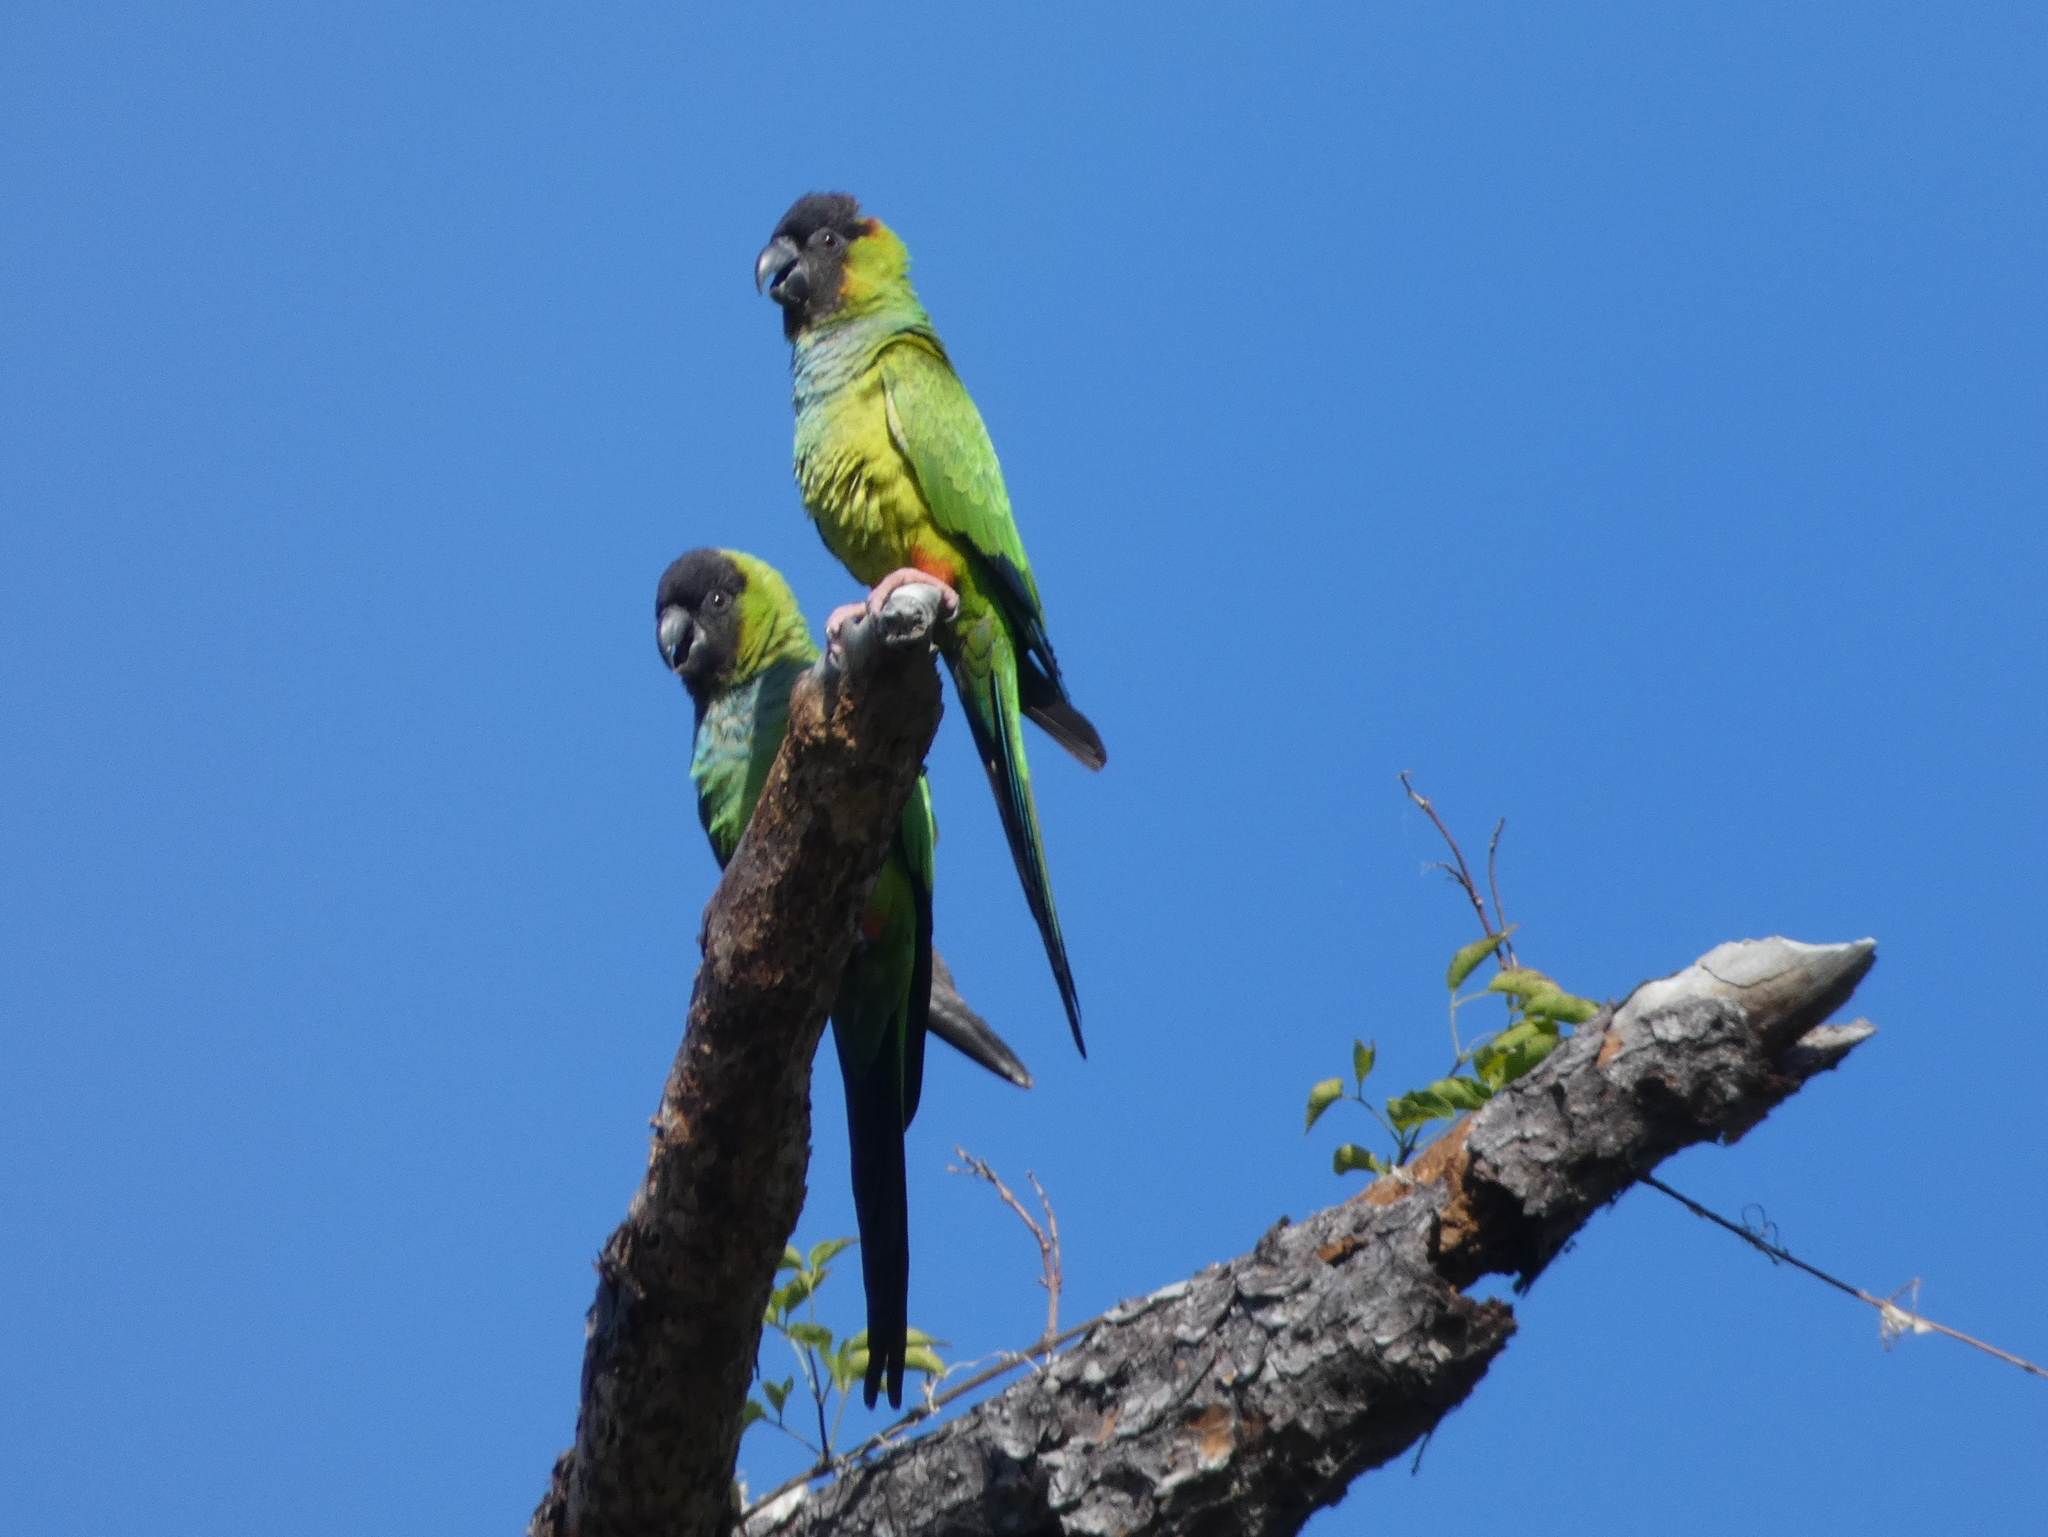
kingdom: Animalia
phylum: Chordata
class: Aves
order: Psittaciformes
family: Psittacidae
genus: Nandayus
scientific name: Nandayus nenday
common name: Nanday parakeet
